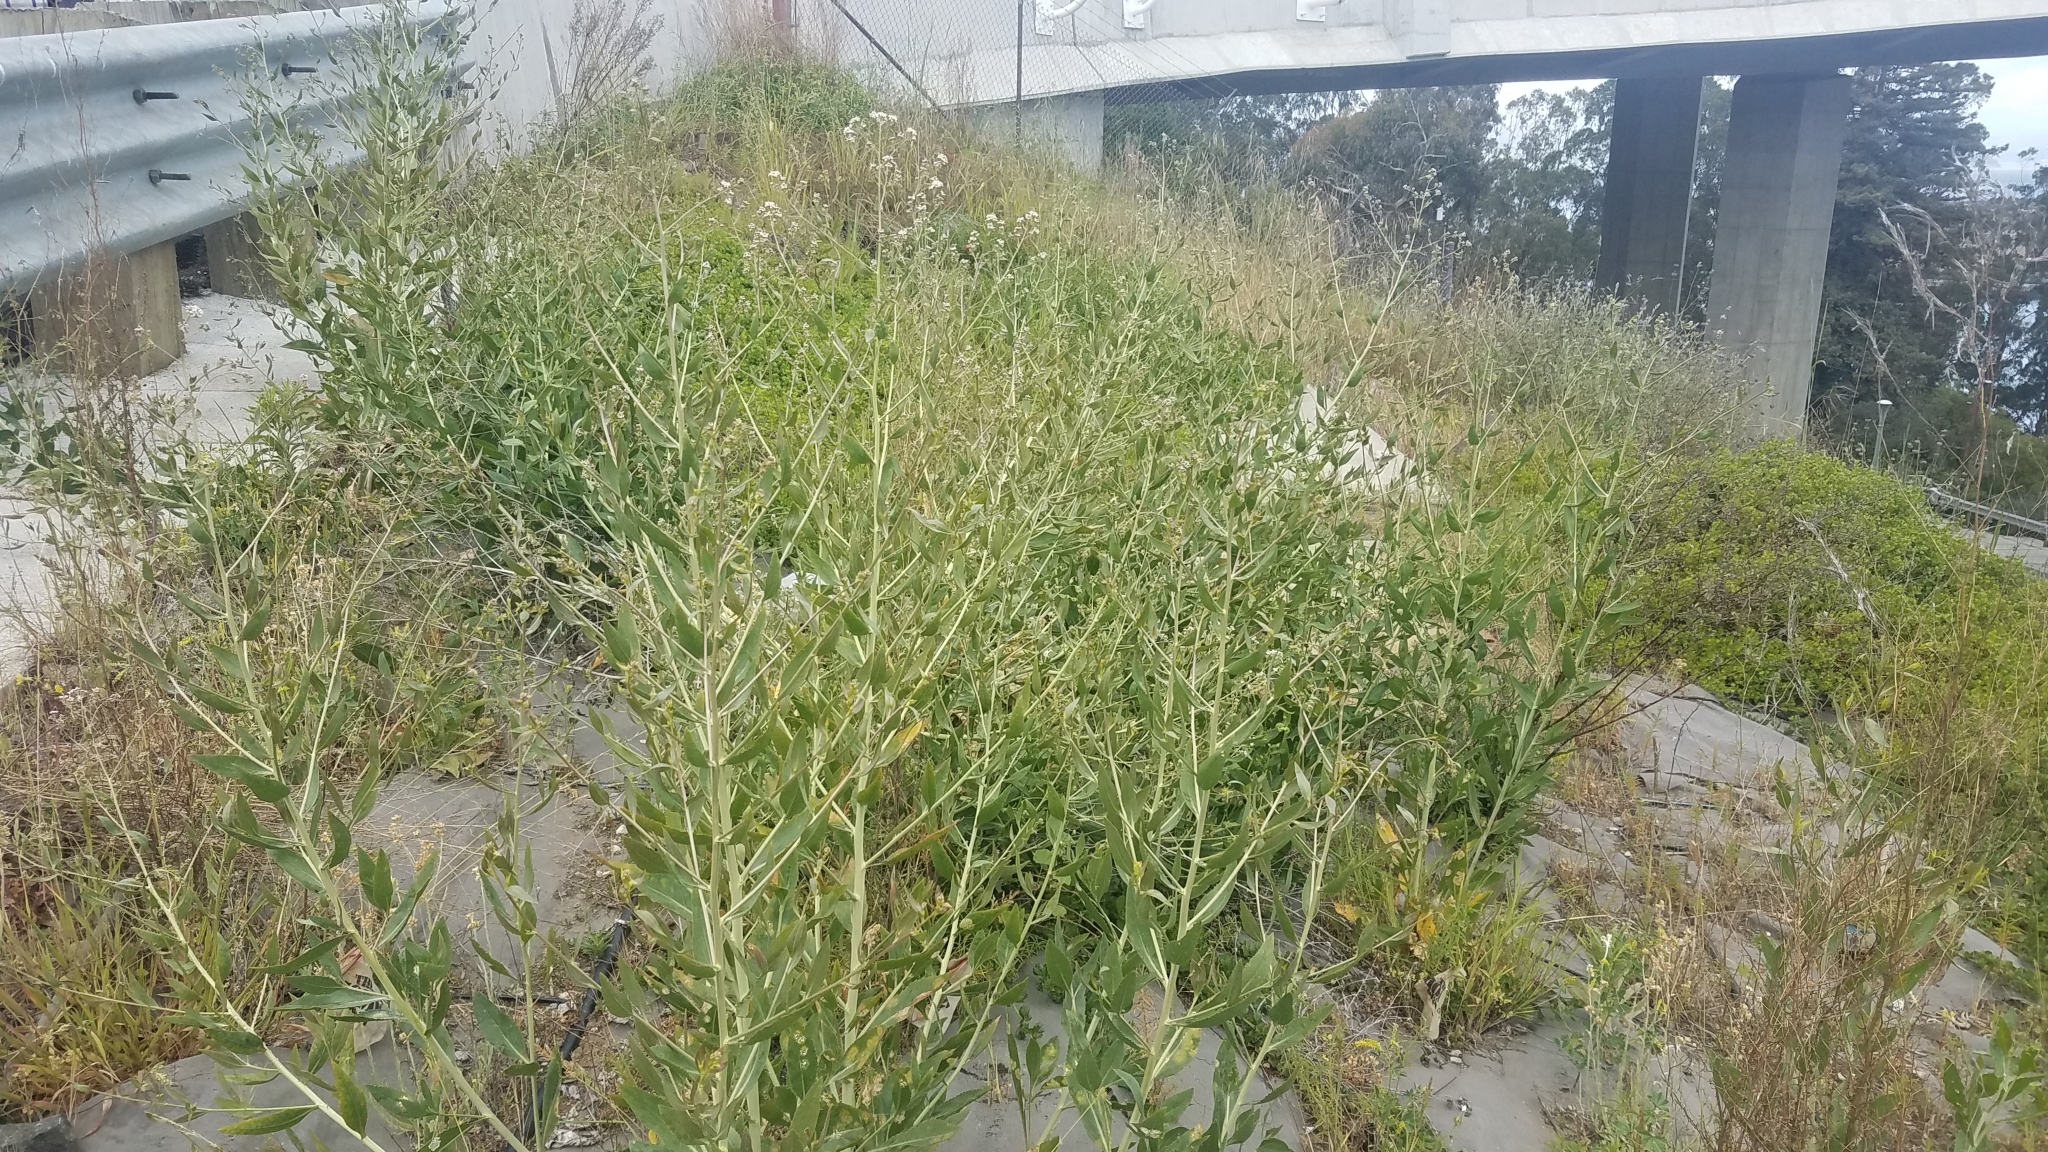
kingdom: Plantae
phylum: Tracheophyta
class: Magnoliopsida
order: Brassicales
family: Brassicaceae
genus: Lepidium
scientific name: Lepidium latifolium
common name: Dittander
